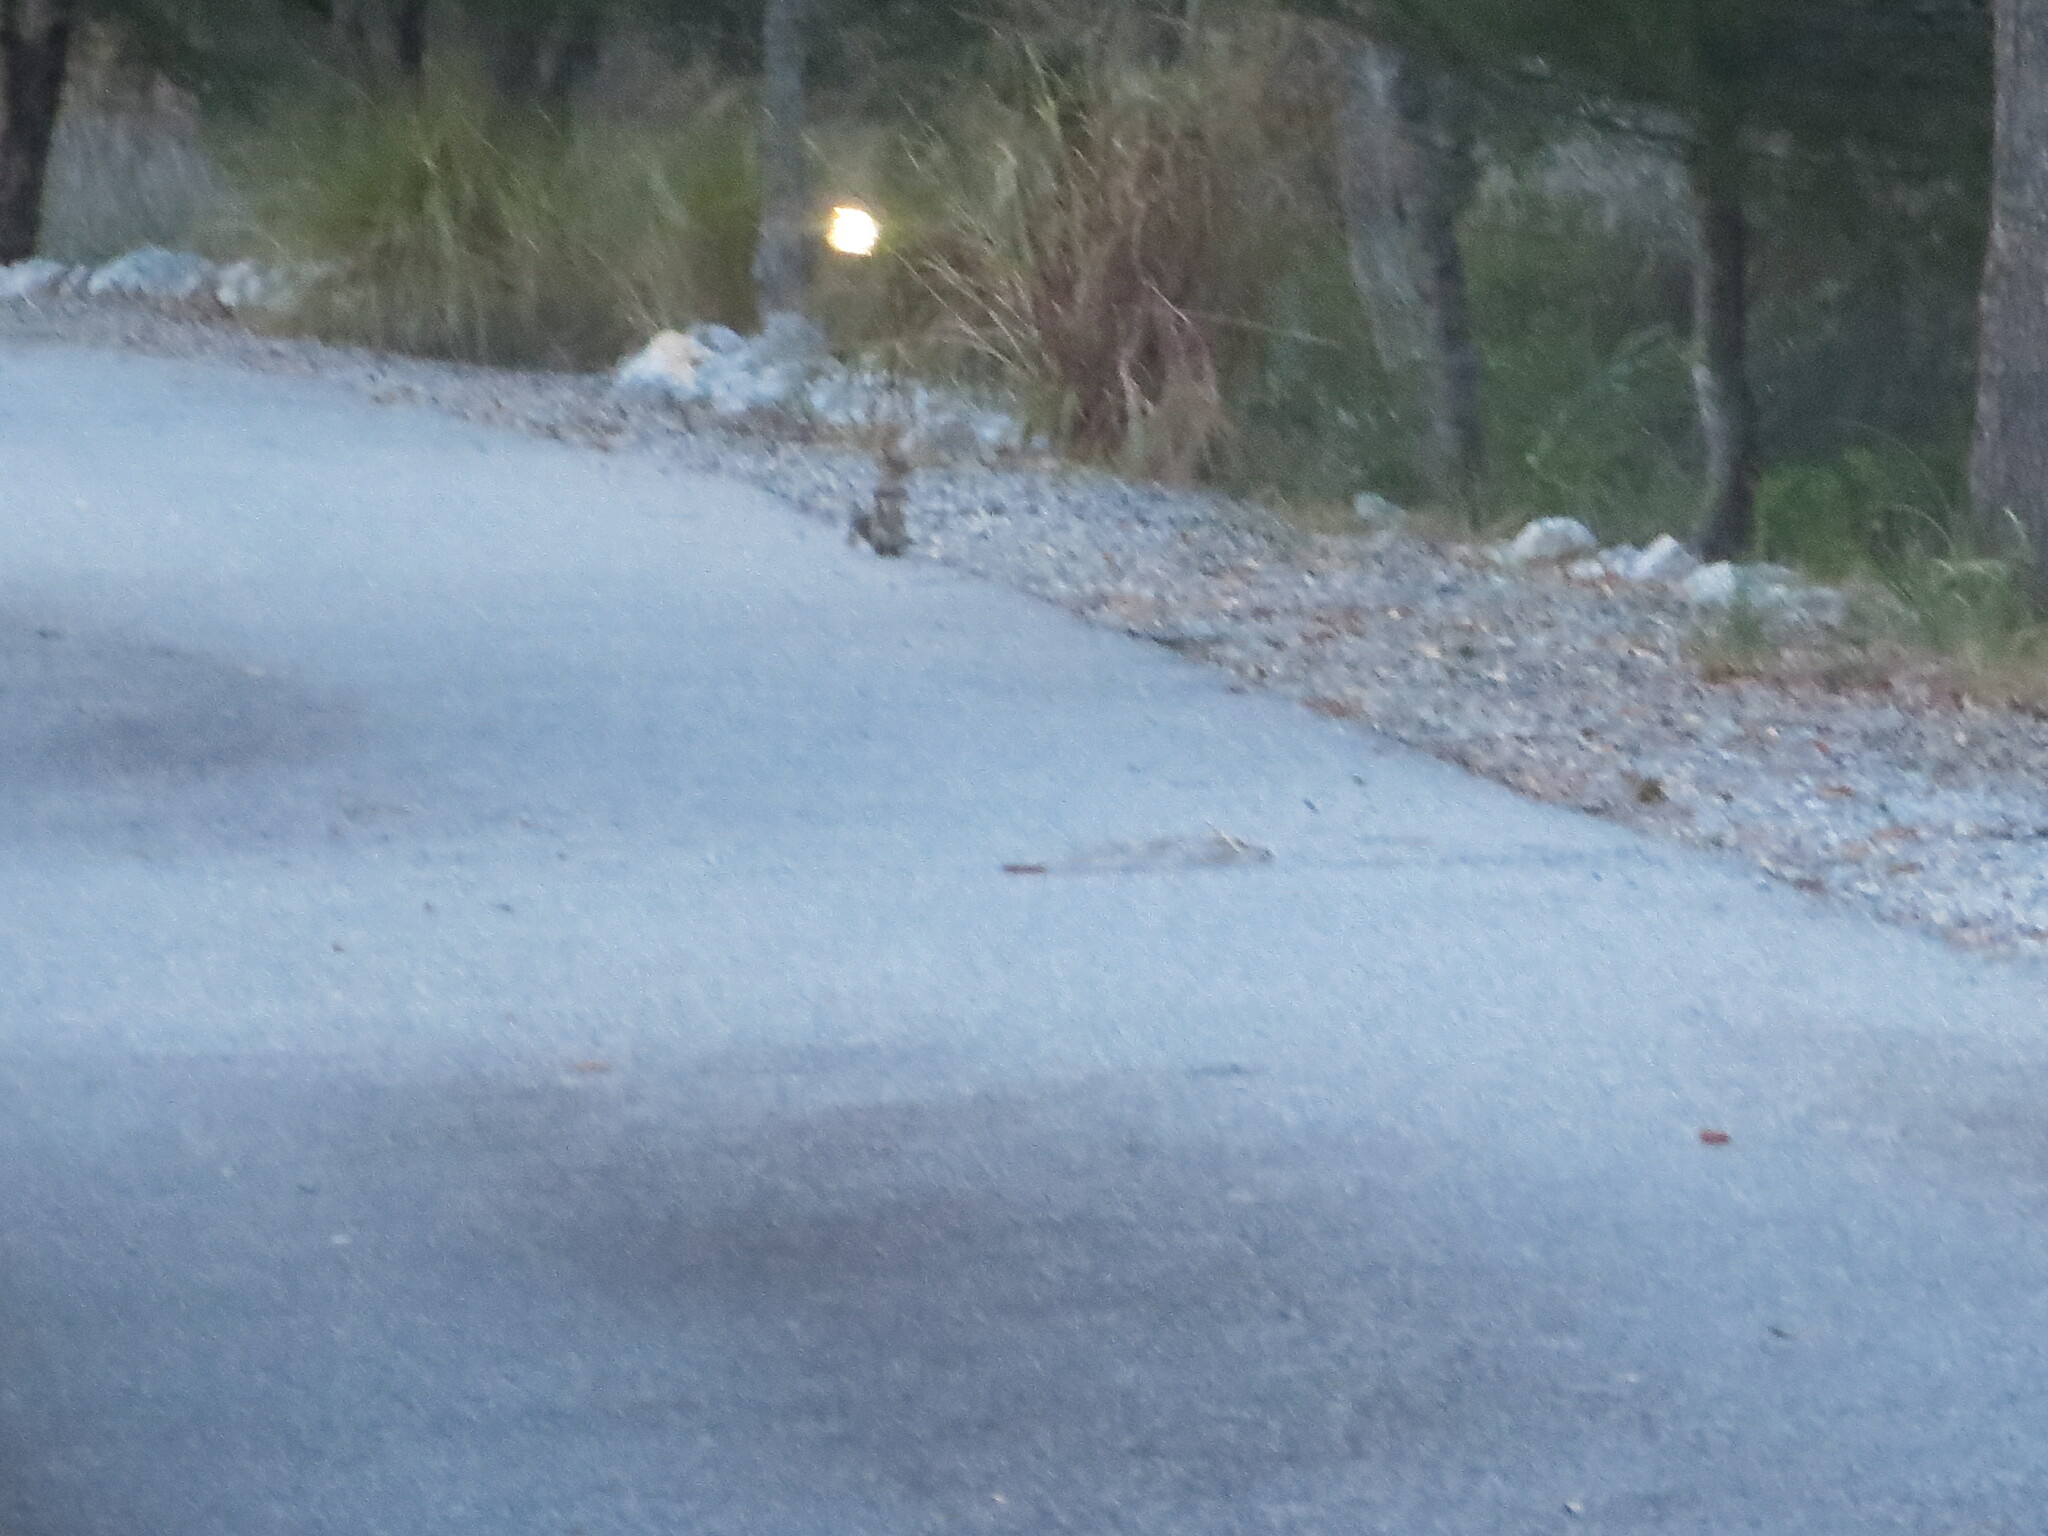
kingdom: Animalia
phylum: Chordata
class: Mammalia
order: Rodentia
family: Sciuridae
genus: Sciurus
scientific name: Sciurus carolinensis
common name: Eastern gray squirrel
